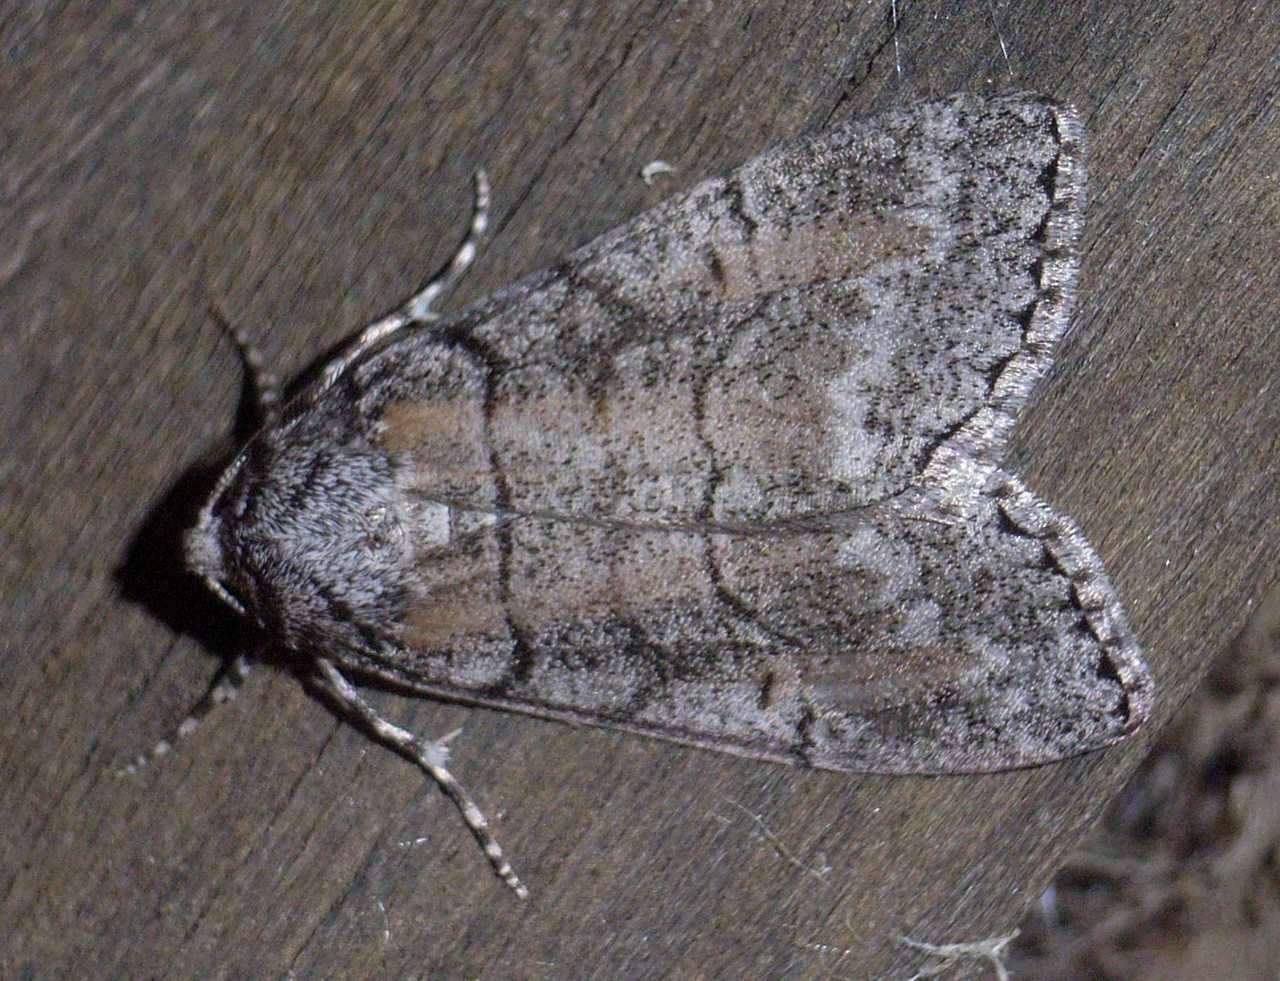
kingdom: Animalia
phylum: Arthropoda
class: Insecta
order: Lepidoptera
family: Geometridae
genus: Smyriodes
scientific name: Smyriodes aplectaria
